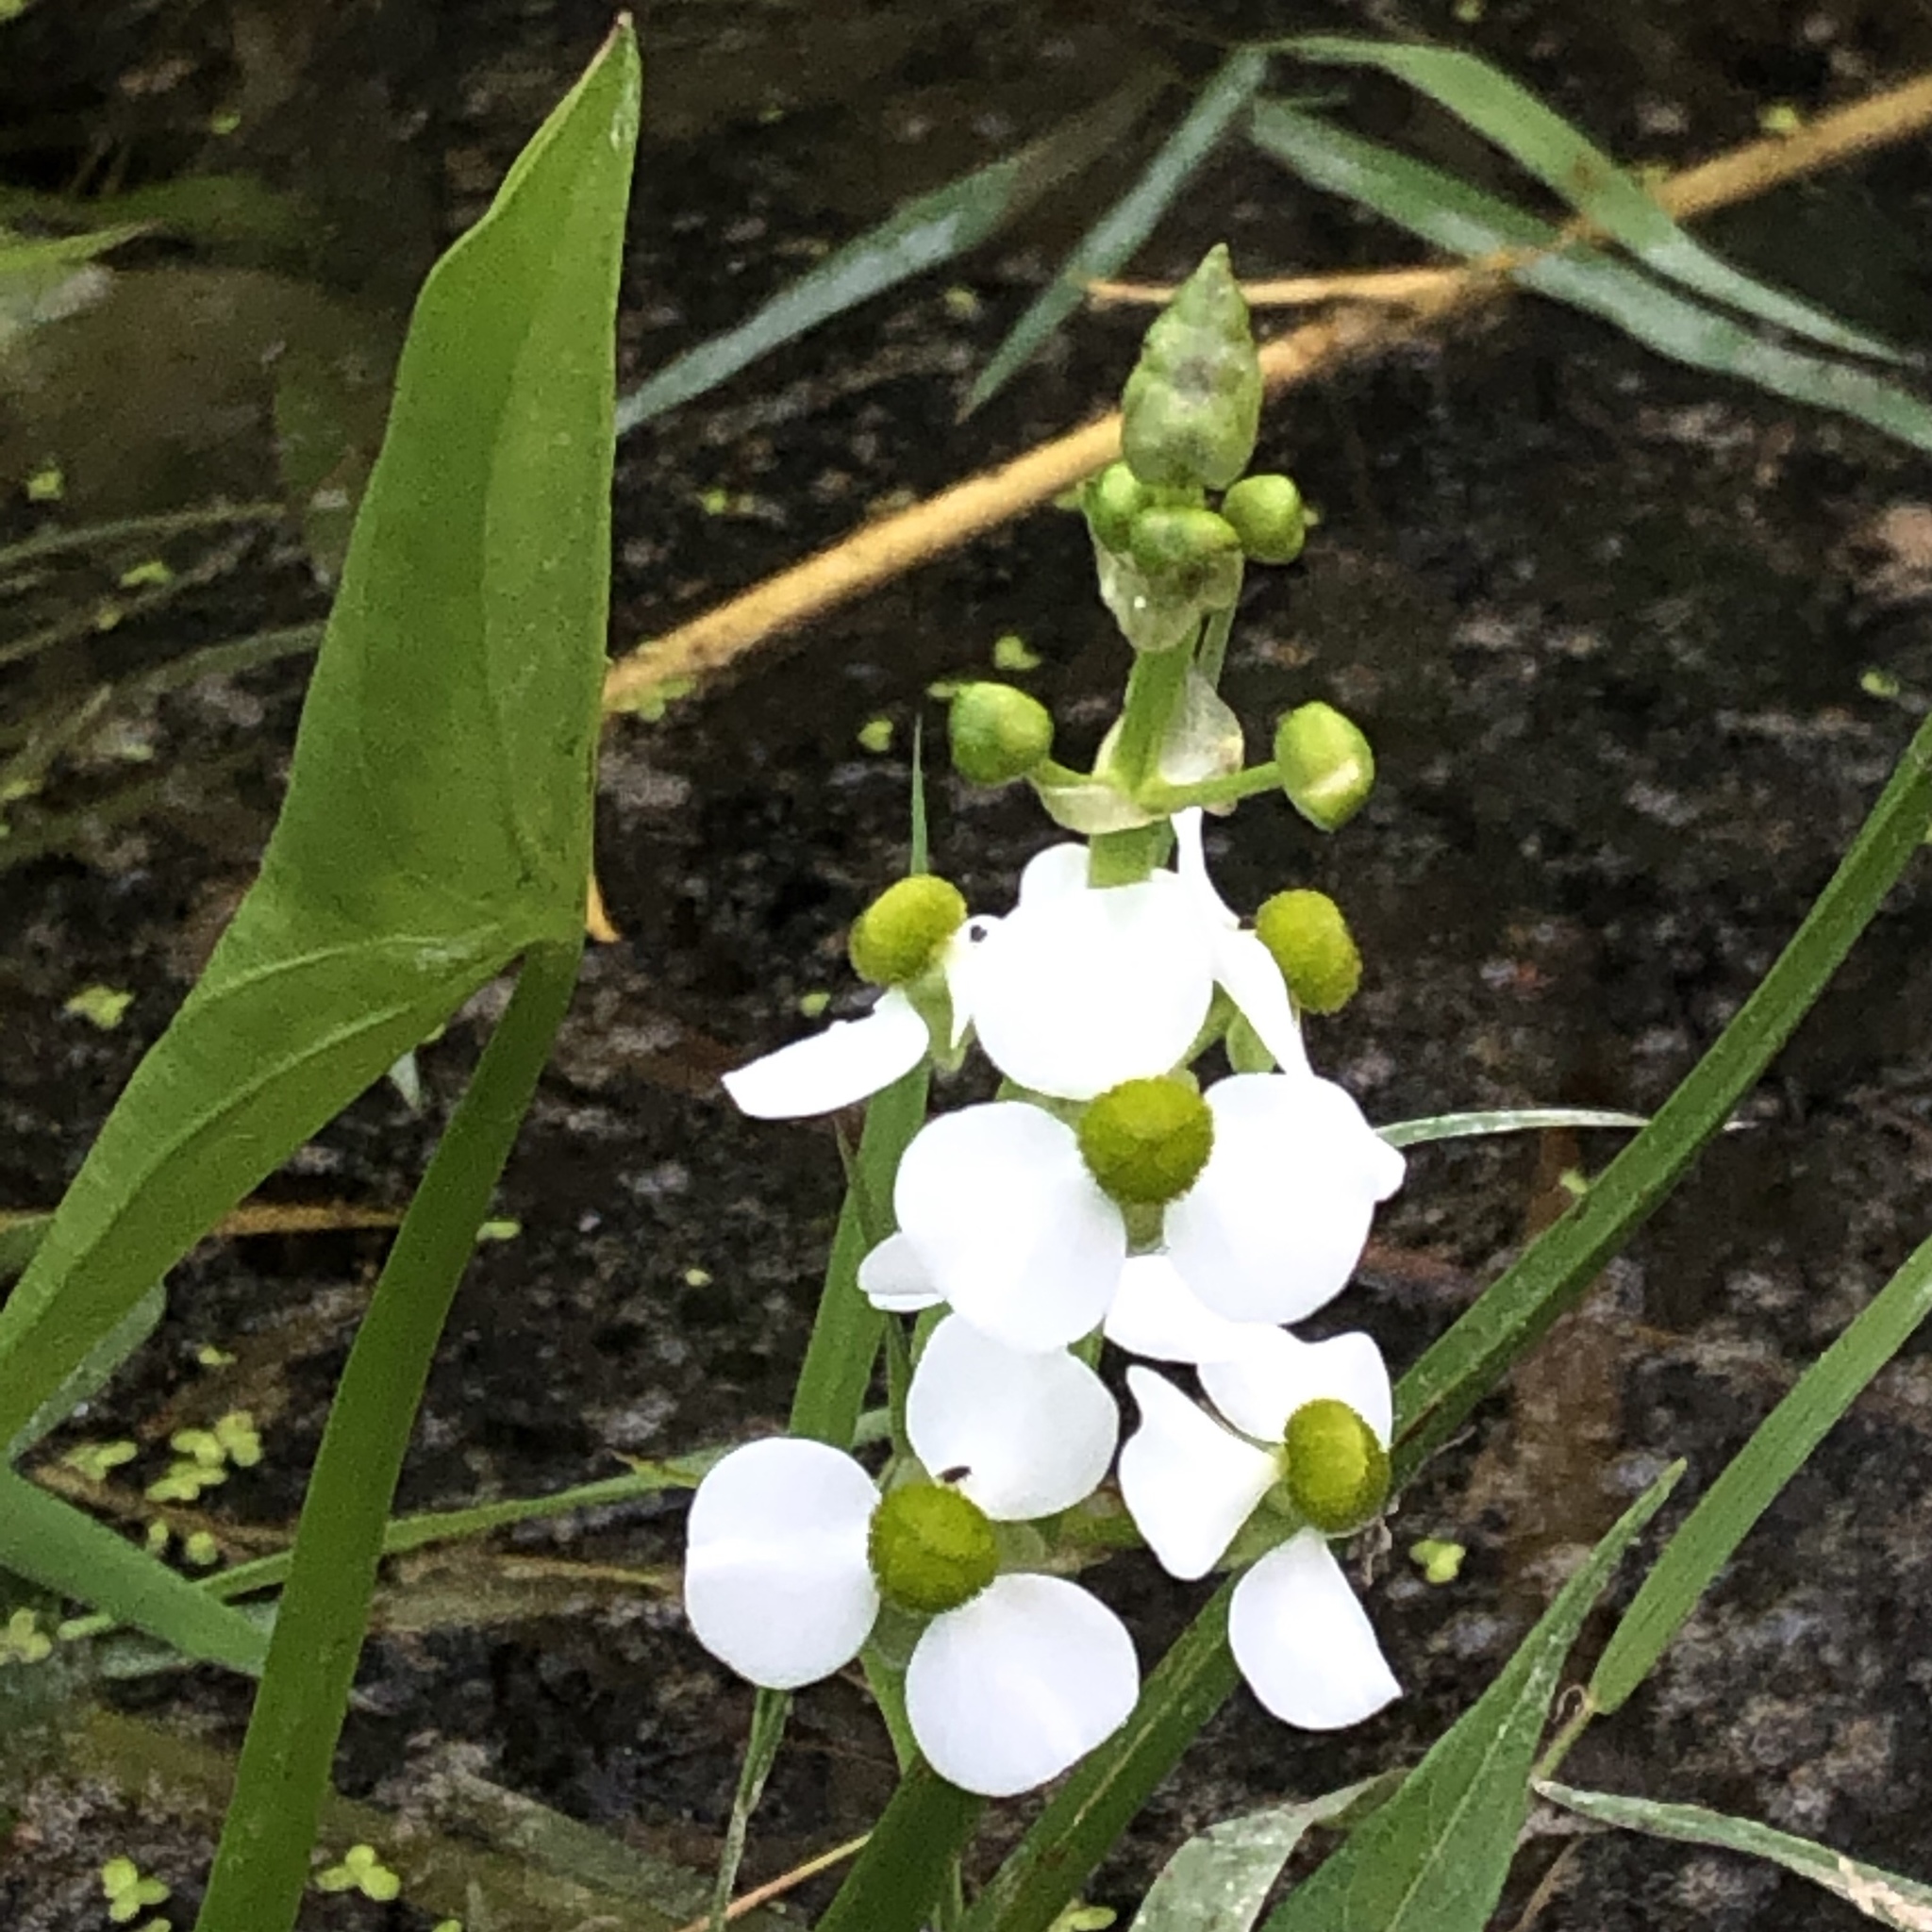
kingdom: Plantae
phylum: Tracheophyta
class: Liliopsida
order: Alismatales
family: Alismataceae
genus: Sagittaria
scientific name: Sagittaria latifolia
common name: Duck-potato
